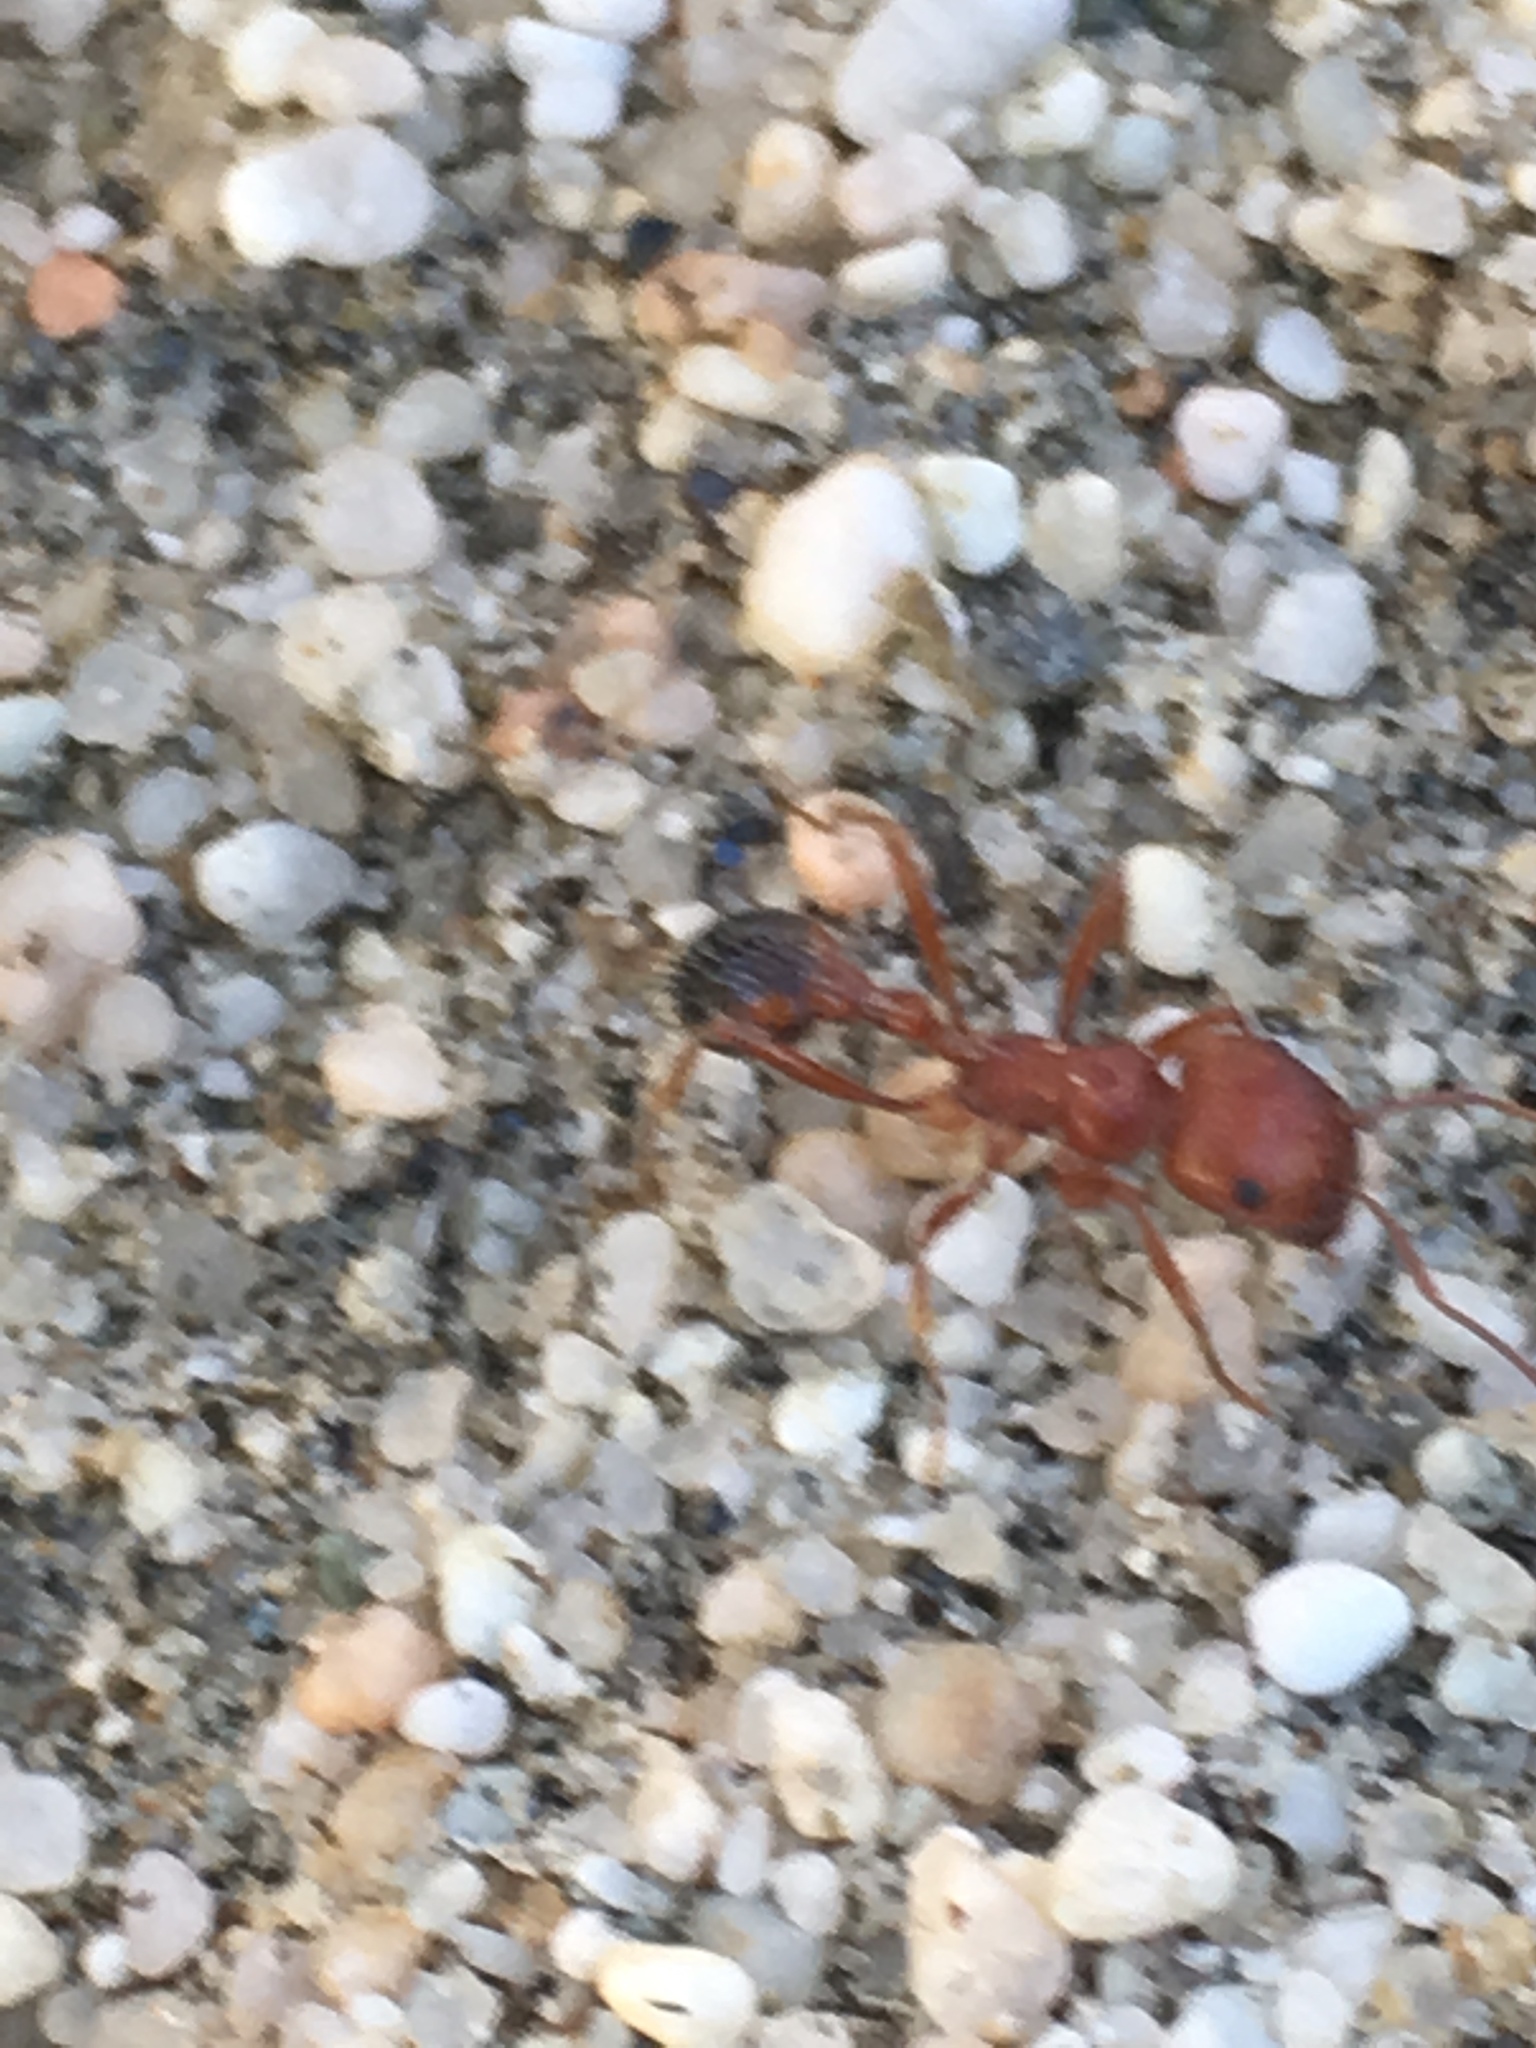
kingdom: Animalia
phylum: Arthropoda
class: Insecta
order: Hymenoptera
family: Formicidae
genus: Pogonomyrmex
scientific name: Pogonomyrmex californicus
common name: California harvester ant
